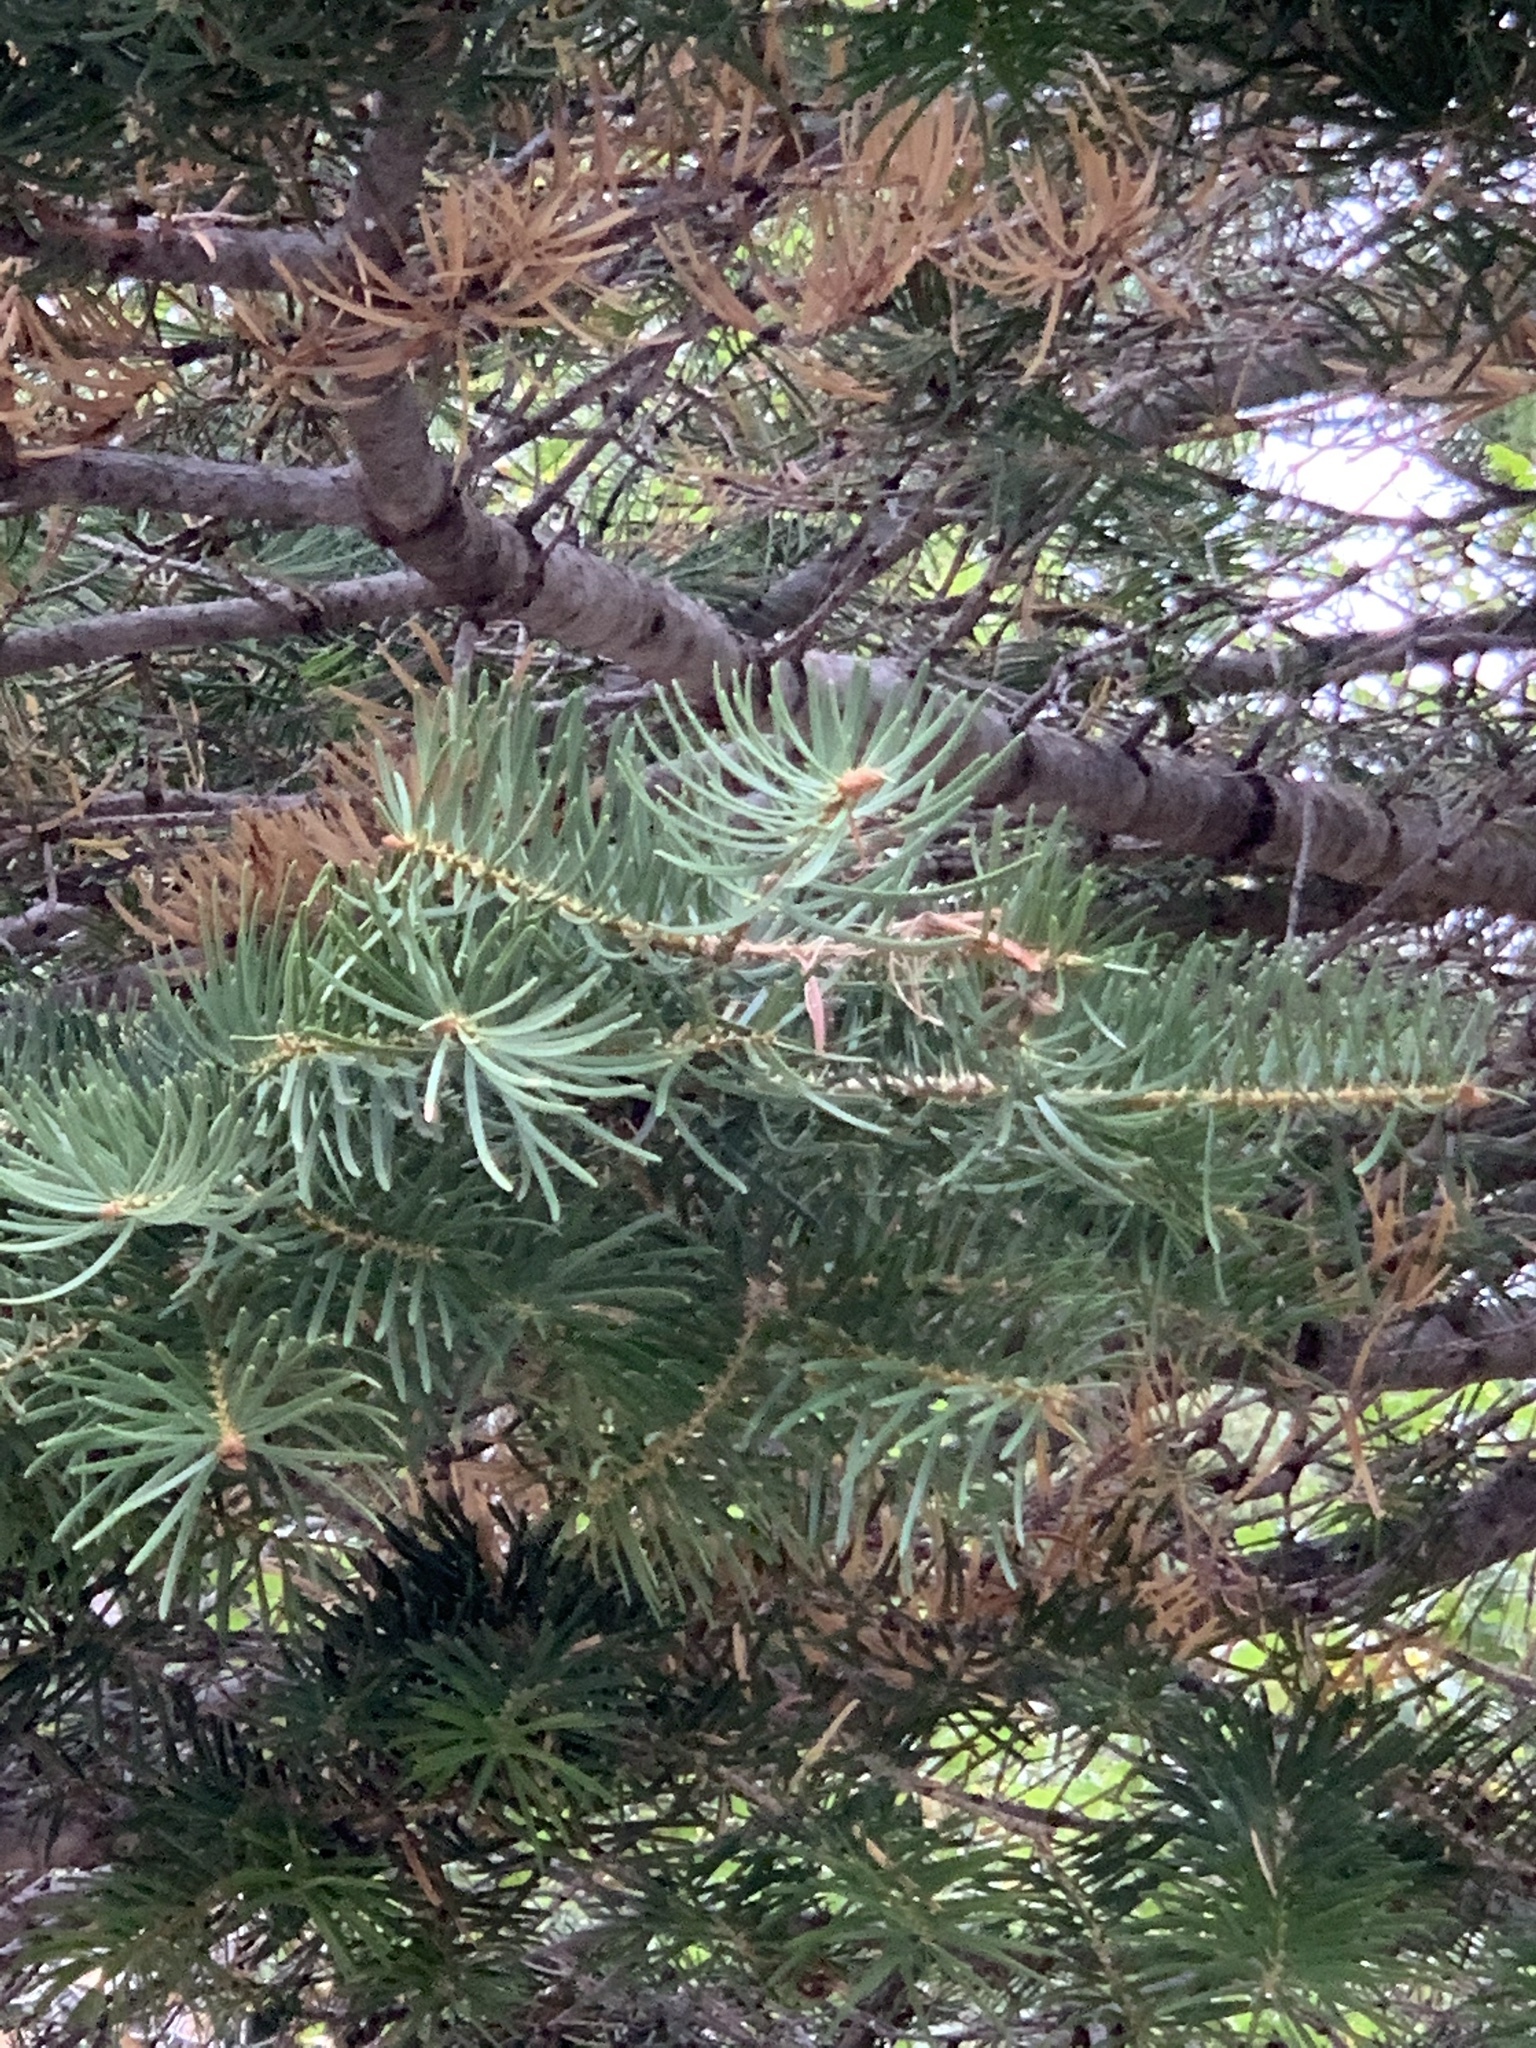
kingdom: Plantae
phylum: Tracheophyta
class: Pinopsida
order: Pinales
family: Pinaceae
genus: Abies
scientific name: Abies concolor
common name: Colorado fir
